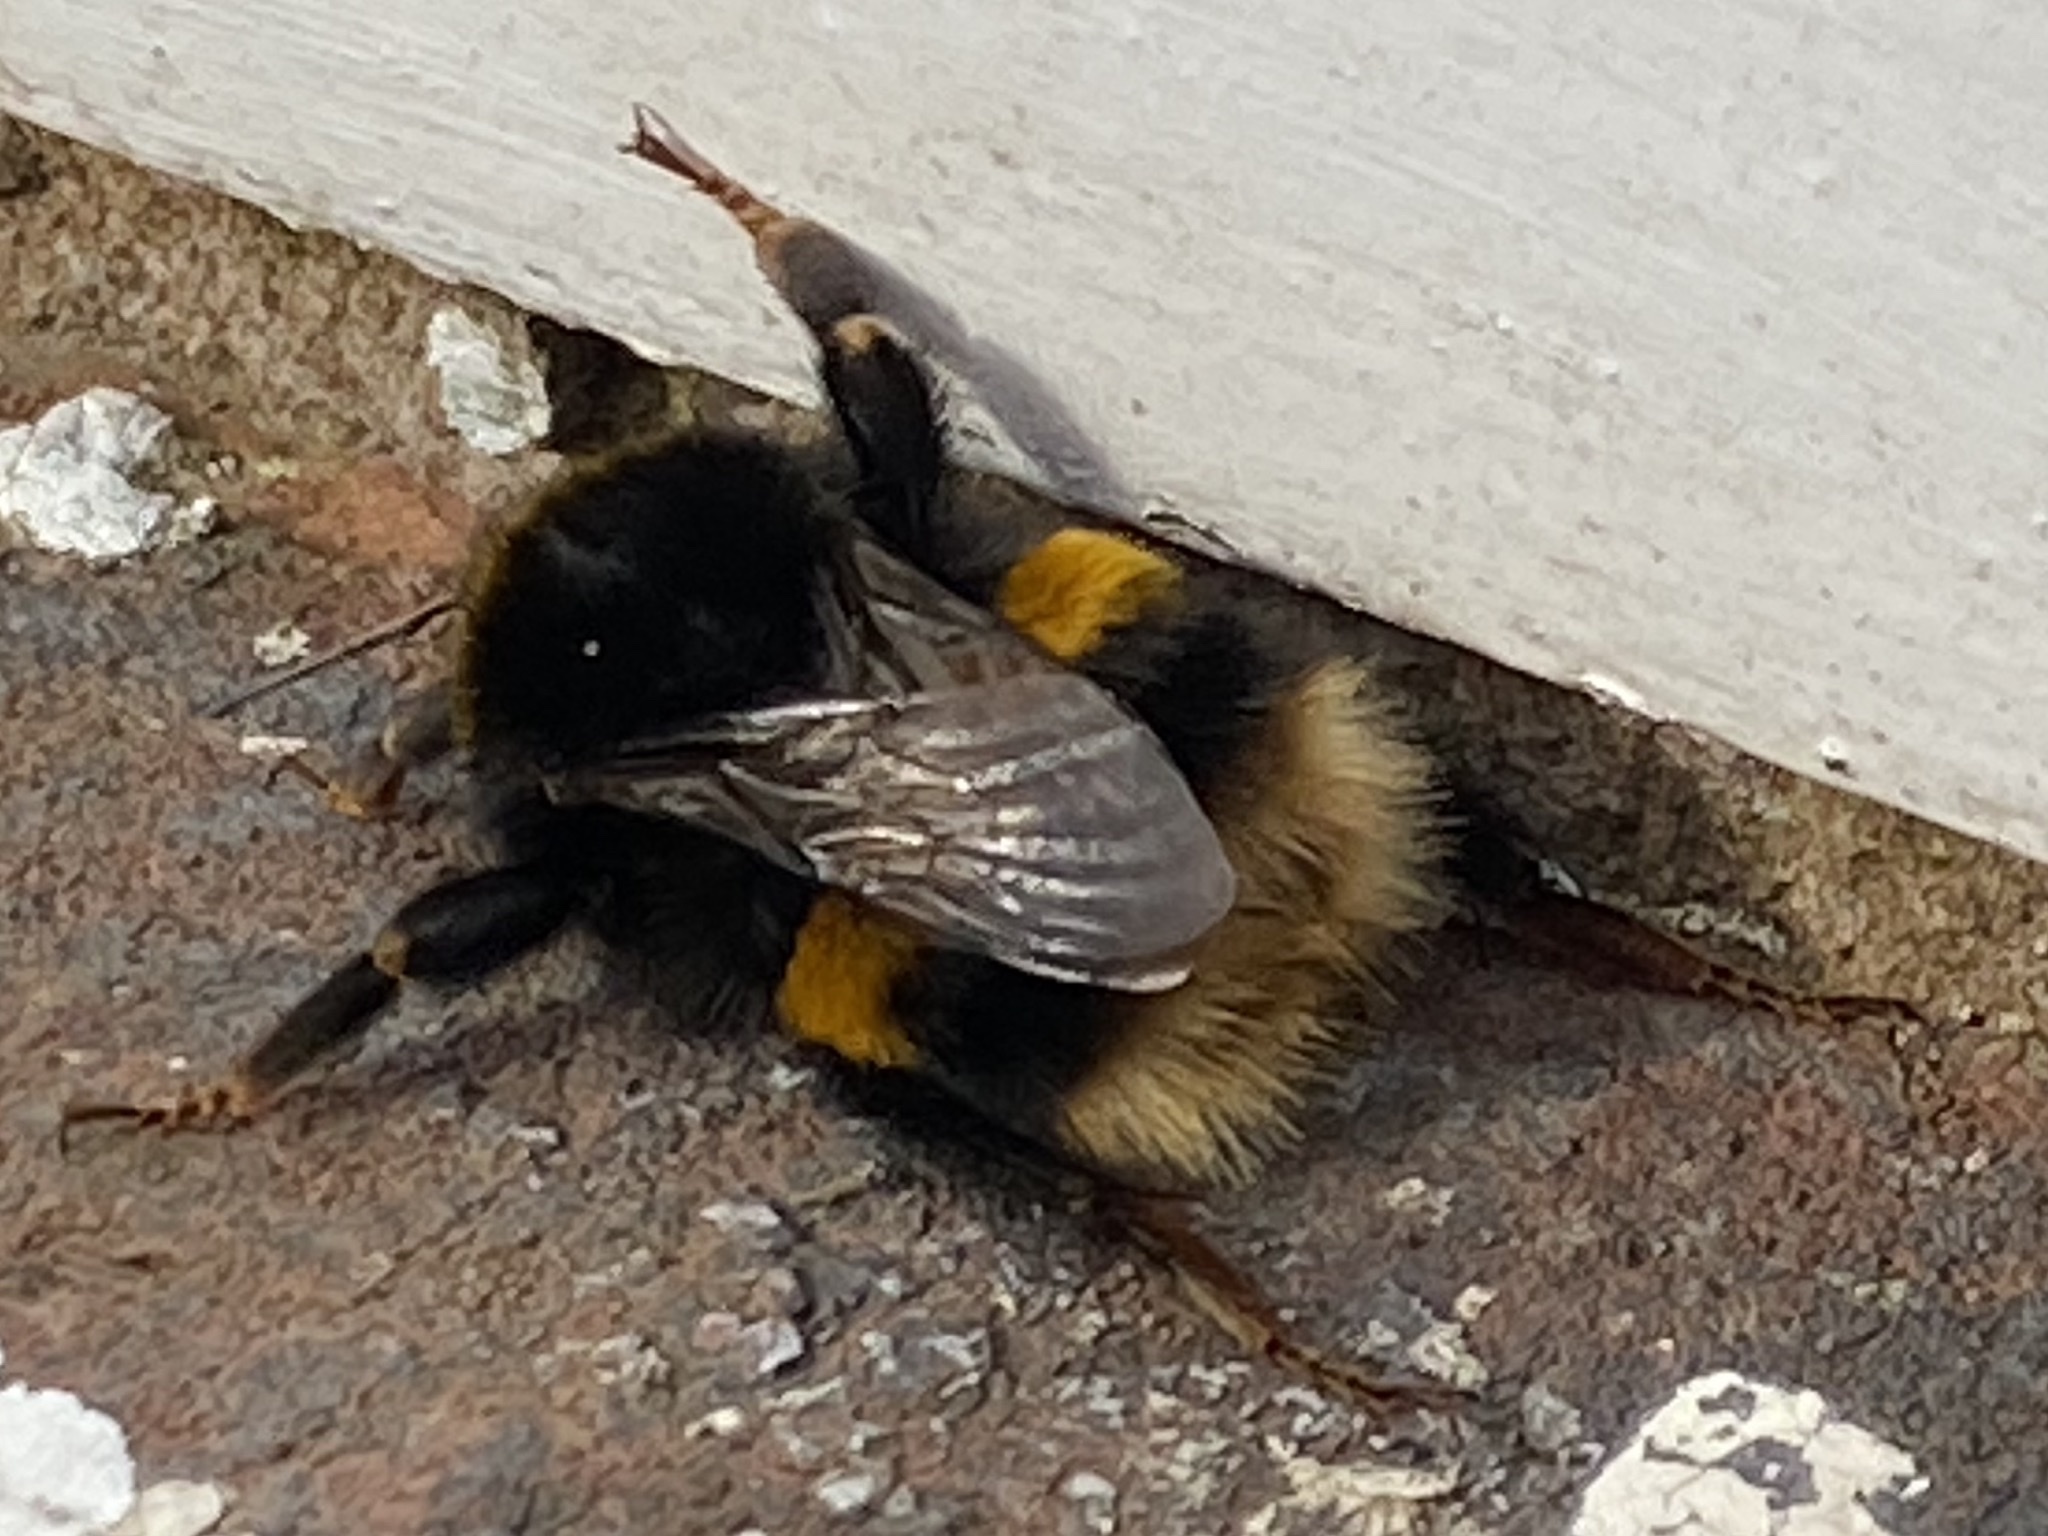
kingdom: Animalia
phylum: Arthropoda
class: Insecta
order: Hymenoptera
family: Apidae
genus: Bombus
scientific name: Bombus terrestris
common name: Buff-tailed bumblebee
